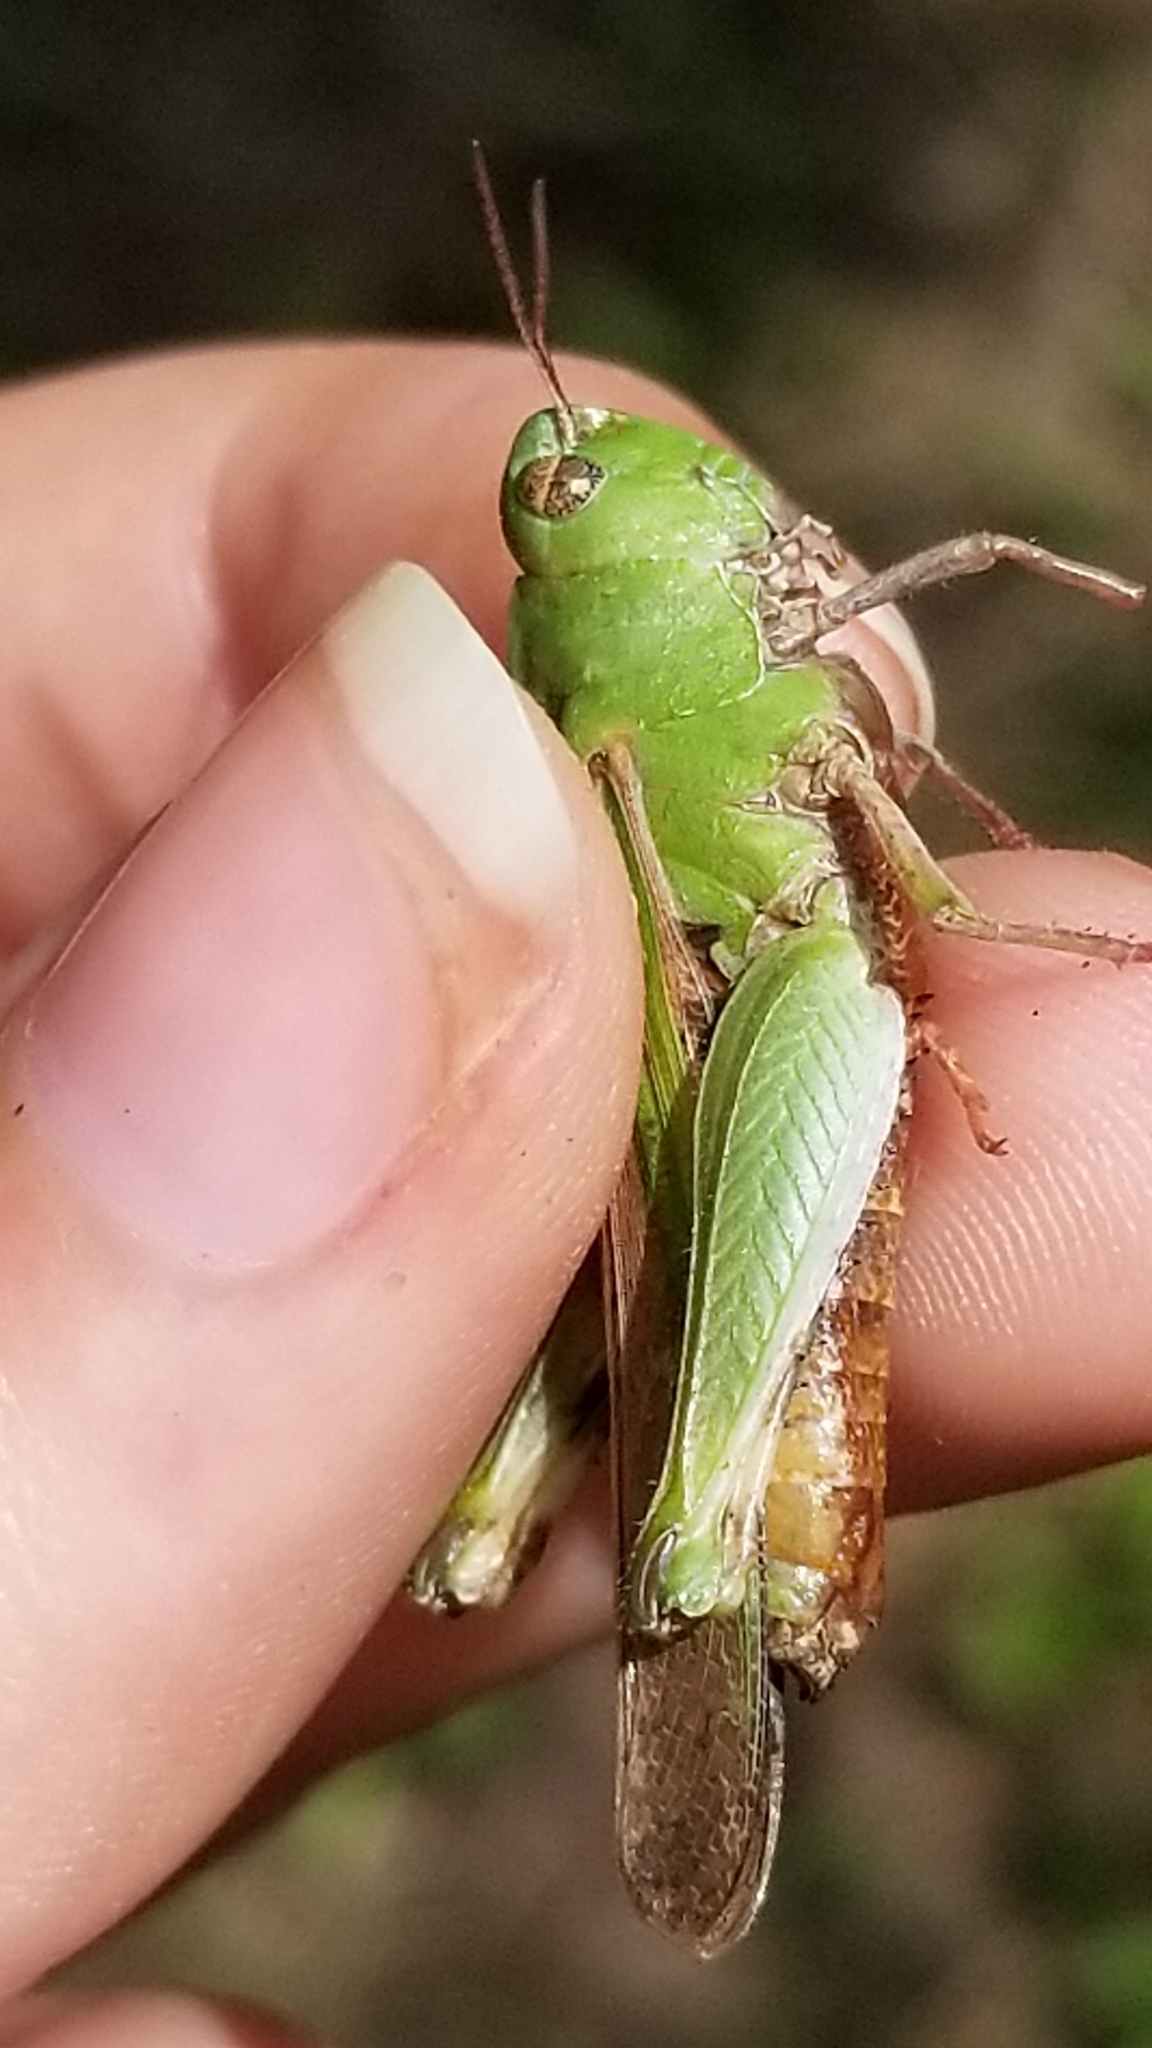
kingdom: Animalia
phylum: Arthropoda
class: Insecta
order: Orthoptera
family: Acrididae
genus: Chortophaga
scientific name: Chortophaga viridifasciata
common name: Green-striped grasshopper
